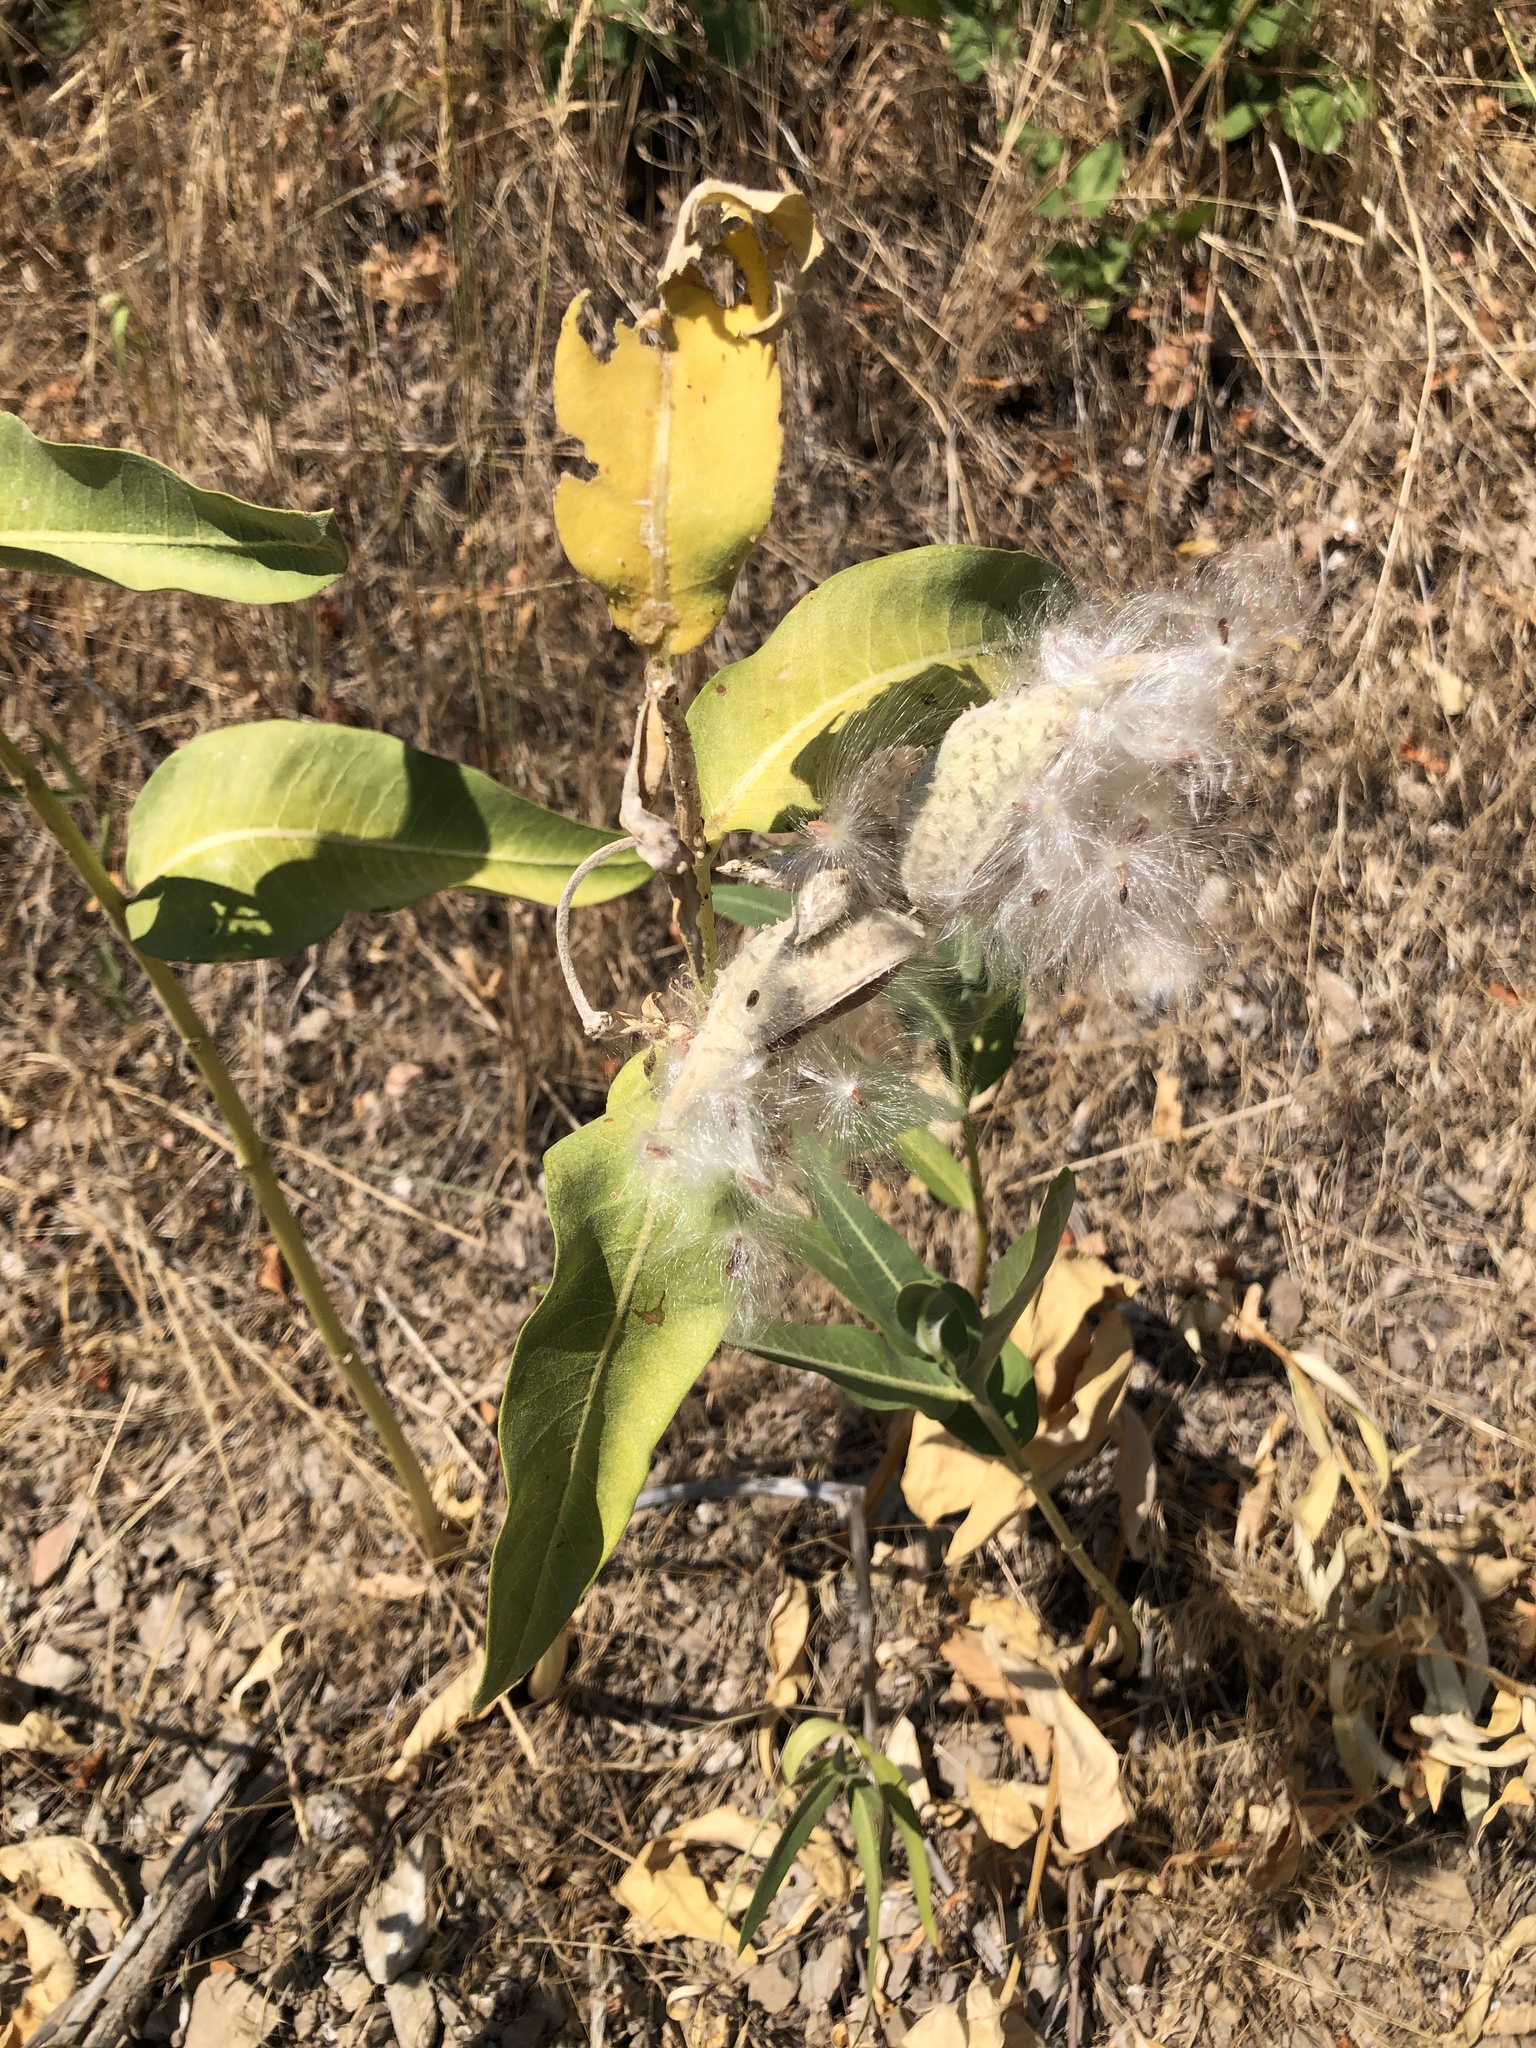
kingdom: Plantae
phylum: Tracheophyta
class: Magnoliopsida
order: Gentianales
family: Apocynaceae
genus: Asclepias
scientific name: Asclepias speciosa
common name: Showy milkweed
